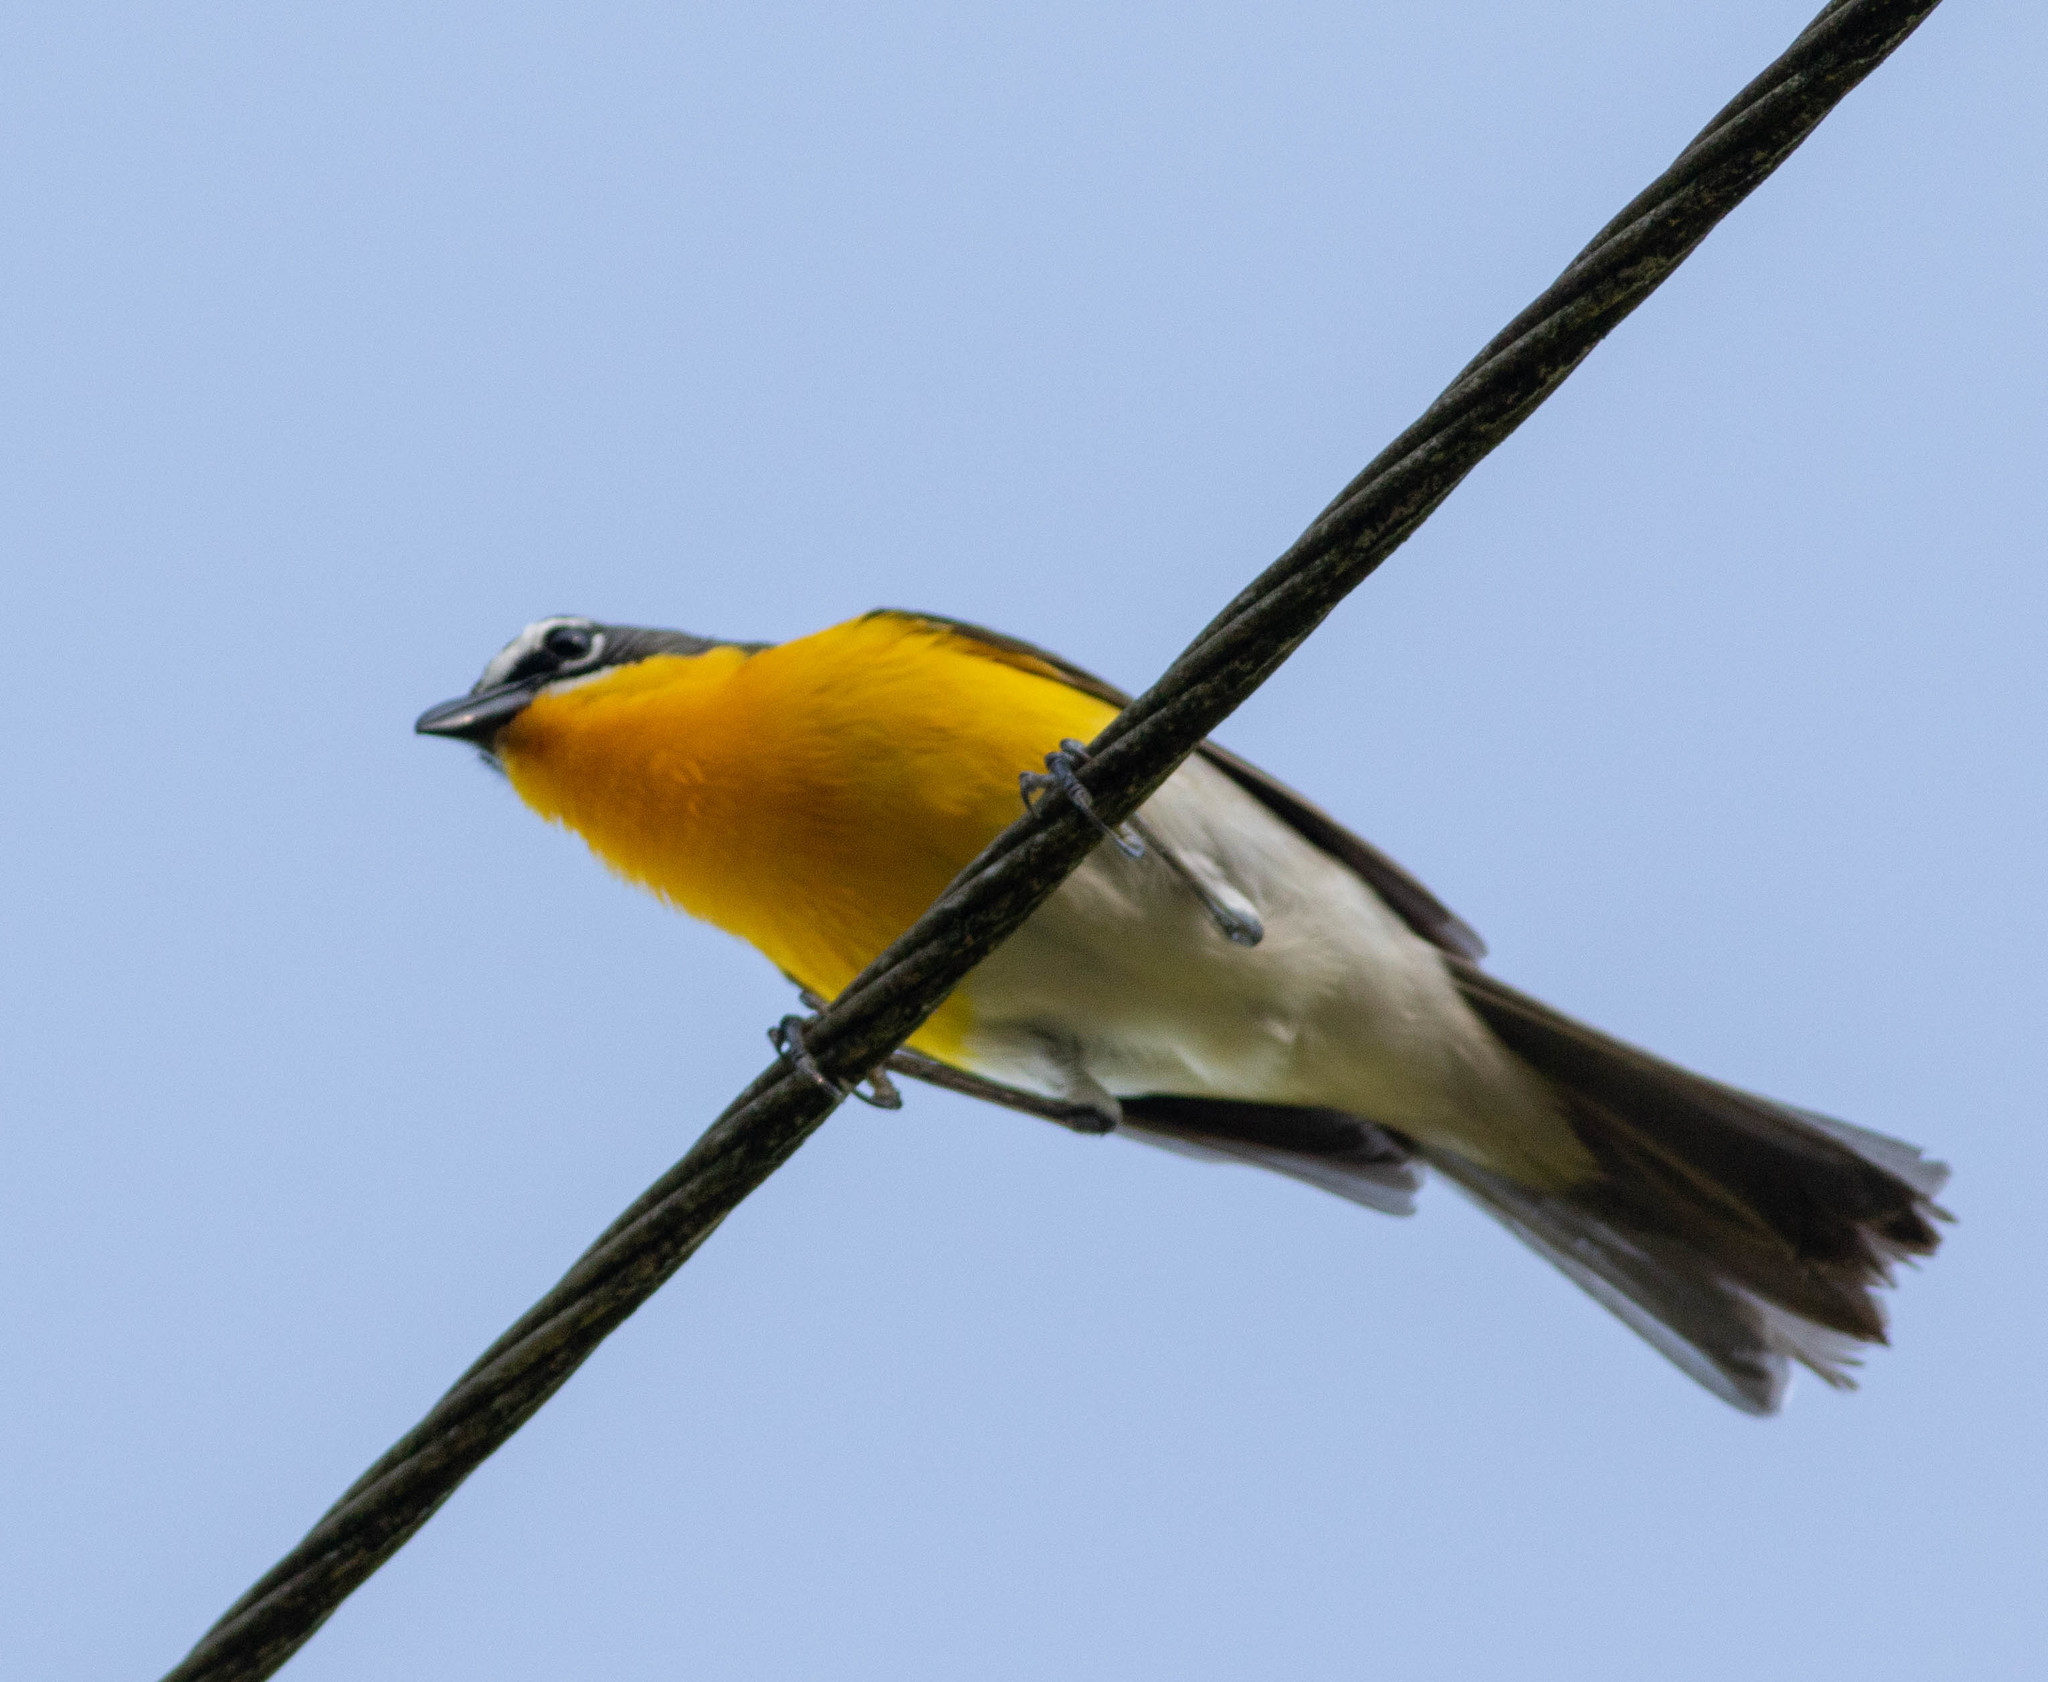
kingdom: Animalia
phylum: Chordata
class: Aves
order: Passeriformes
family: Parulidae
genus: Icteria
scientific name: Icteria virens
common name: Yellow-breasted chat
